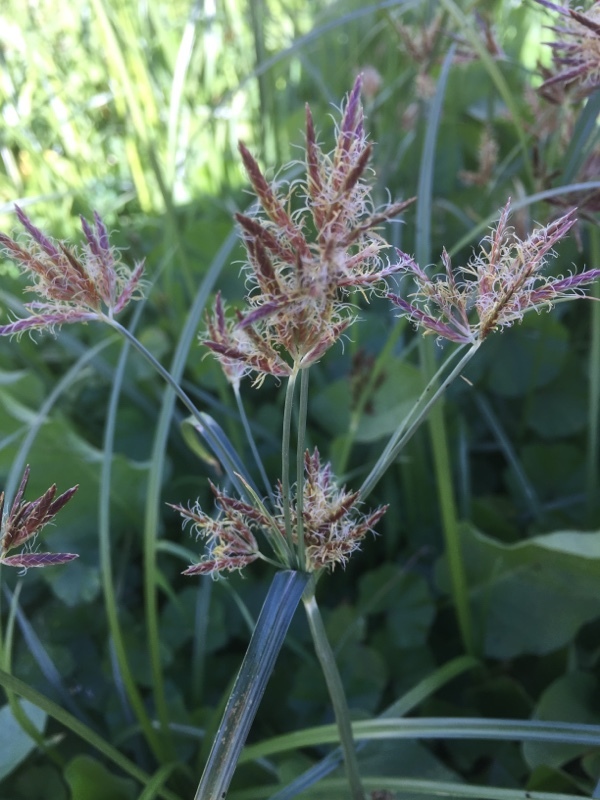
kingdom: Plantae
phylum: Tracheophyta
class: Liliopsida
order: Poales
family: Cyperaceae
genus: Cyperus
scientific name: Cyperus rotundus
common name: Nutgrass
